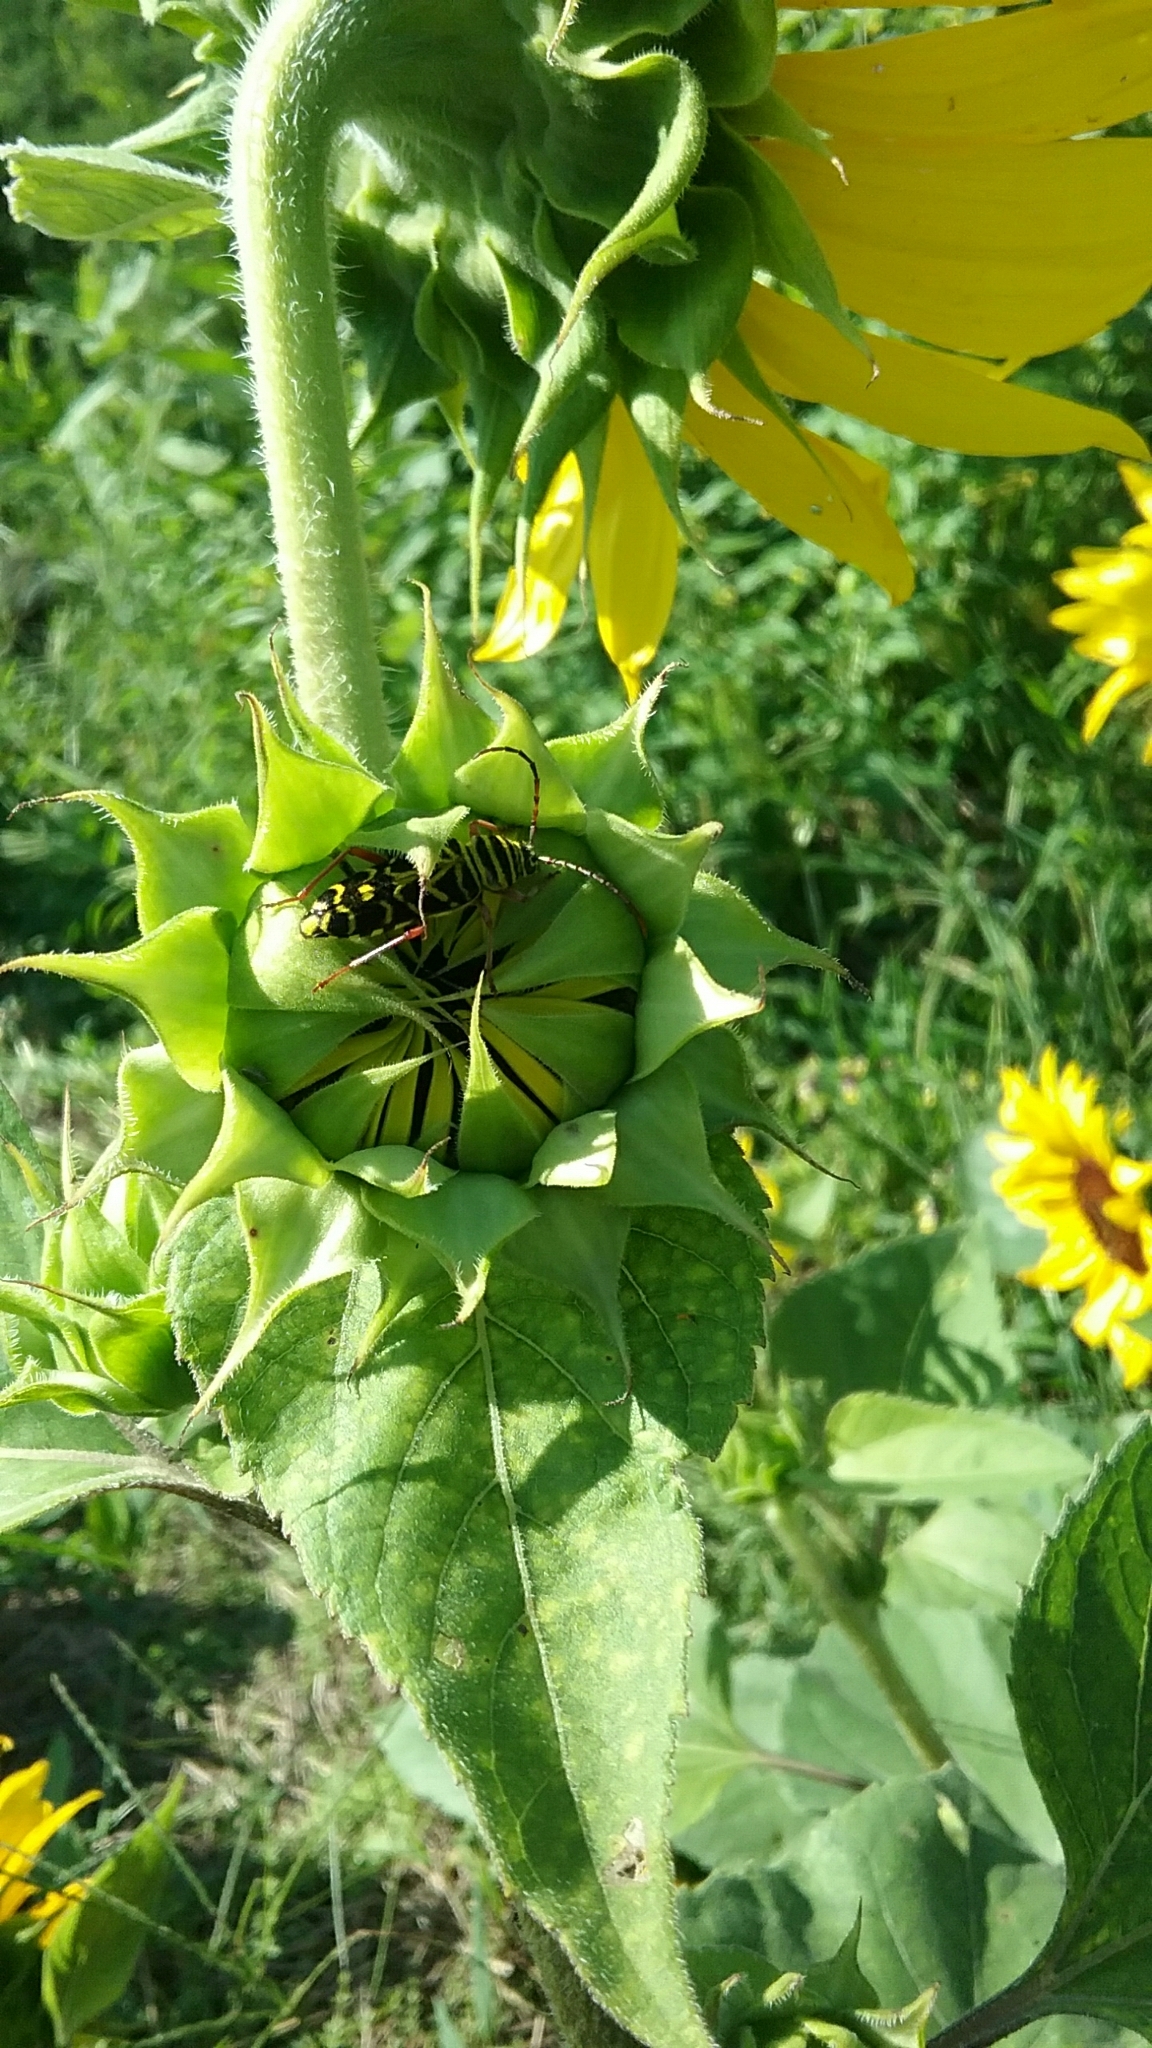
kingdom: Animalia
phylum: Arthropoda
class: Insecta
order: Coleoptera
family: Cerambycidae
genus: Megacyllene
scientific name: Megacyllene robiniae
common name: Locust borer
